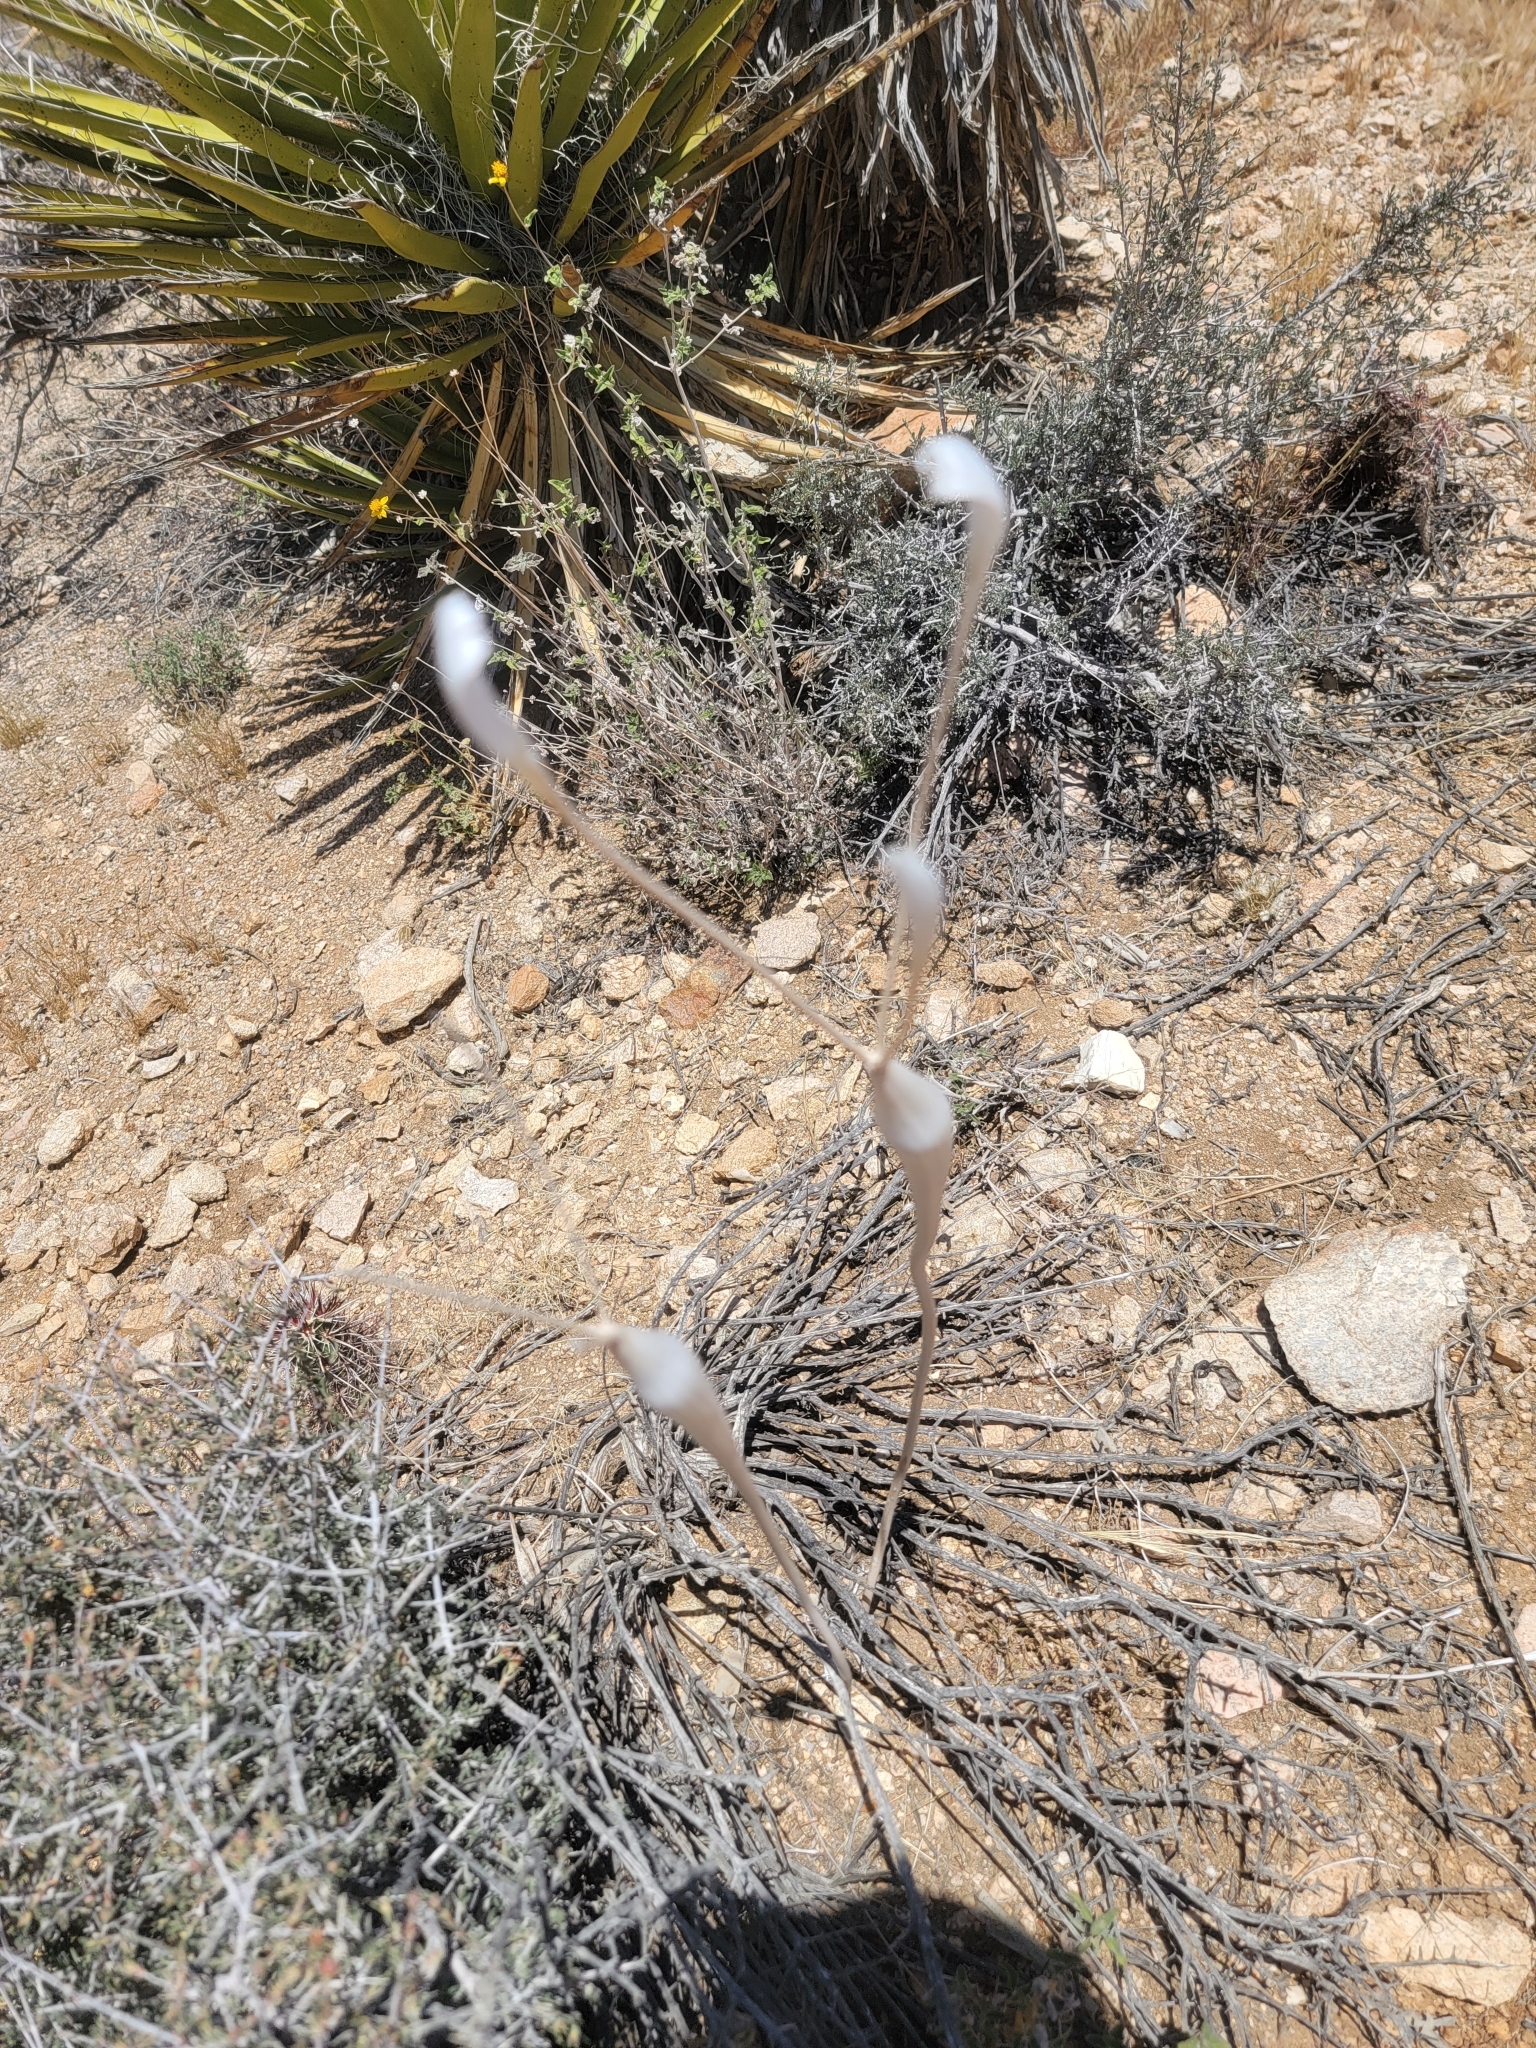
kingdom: Plantae
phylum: Tracheophyta
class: Magnoliopsida
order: Caryophyllales
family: Polygonaceae
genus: Eriogonum
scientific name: Eriogonum inflatum
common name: Desert trumpet
